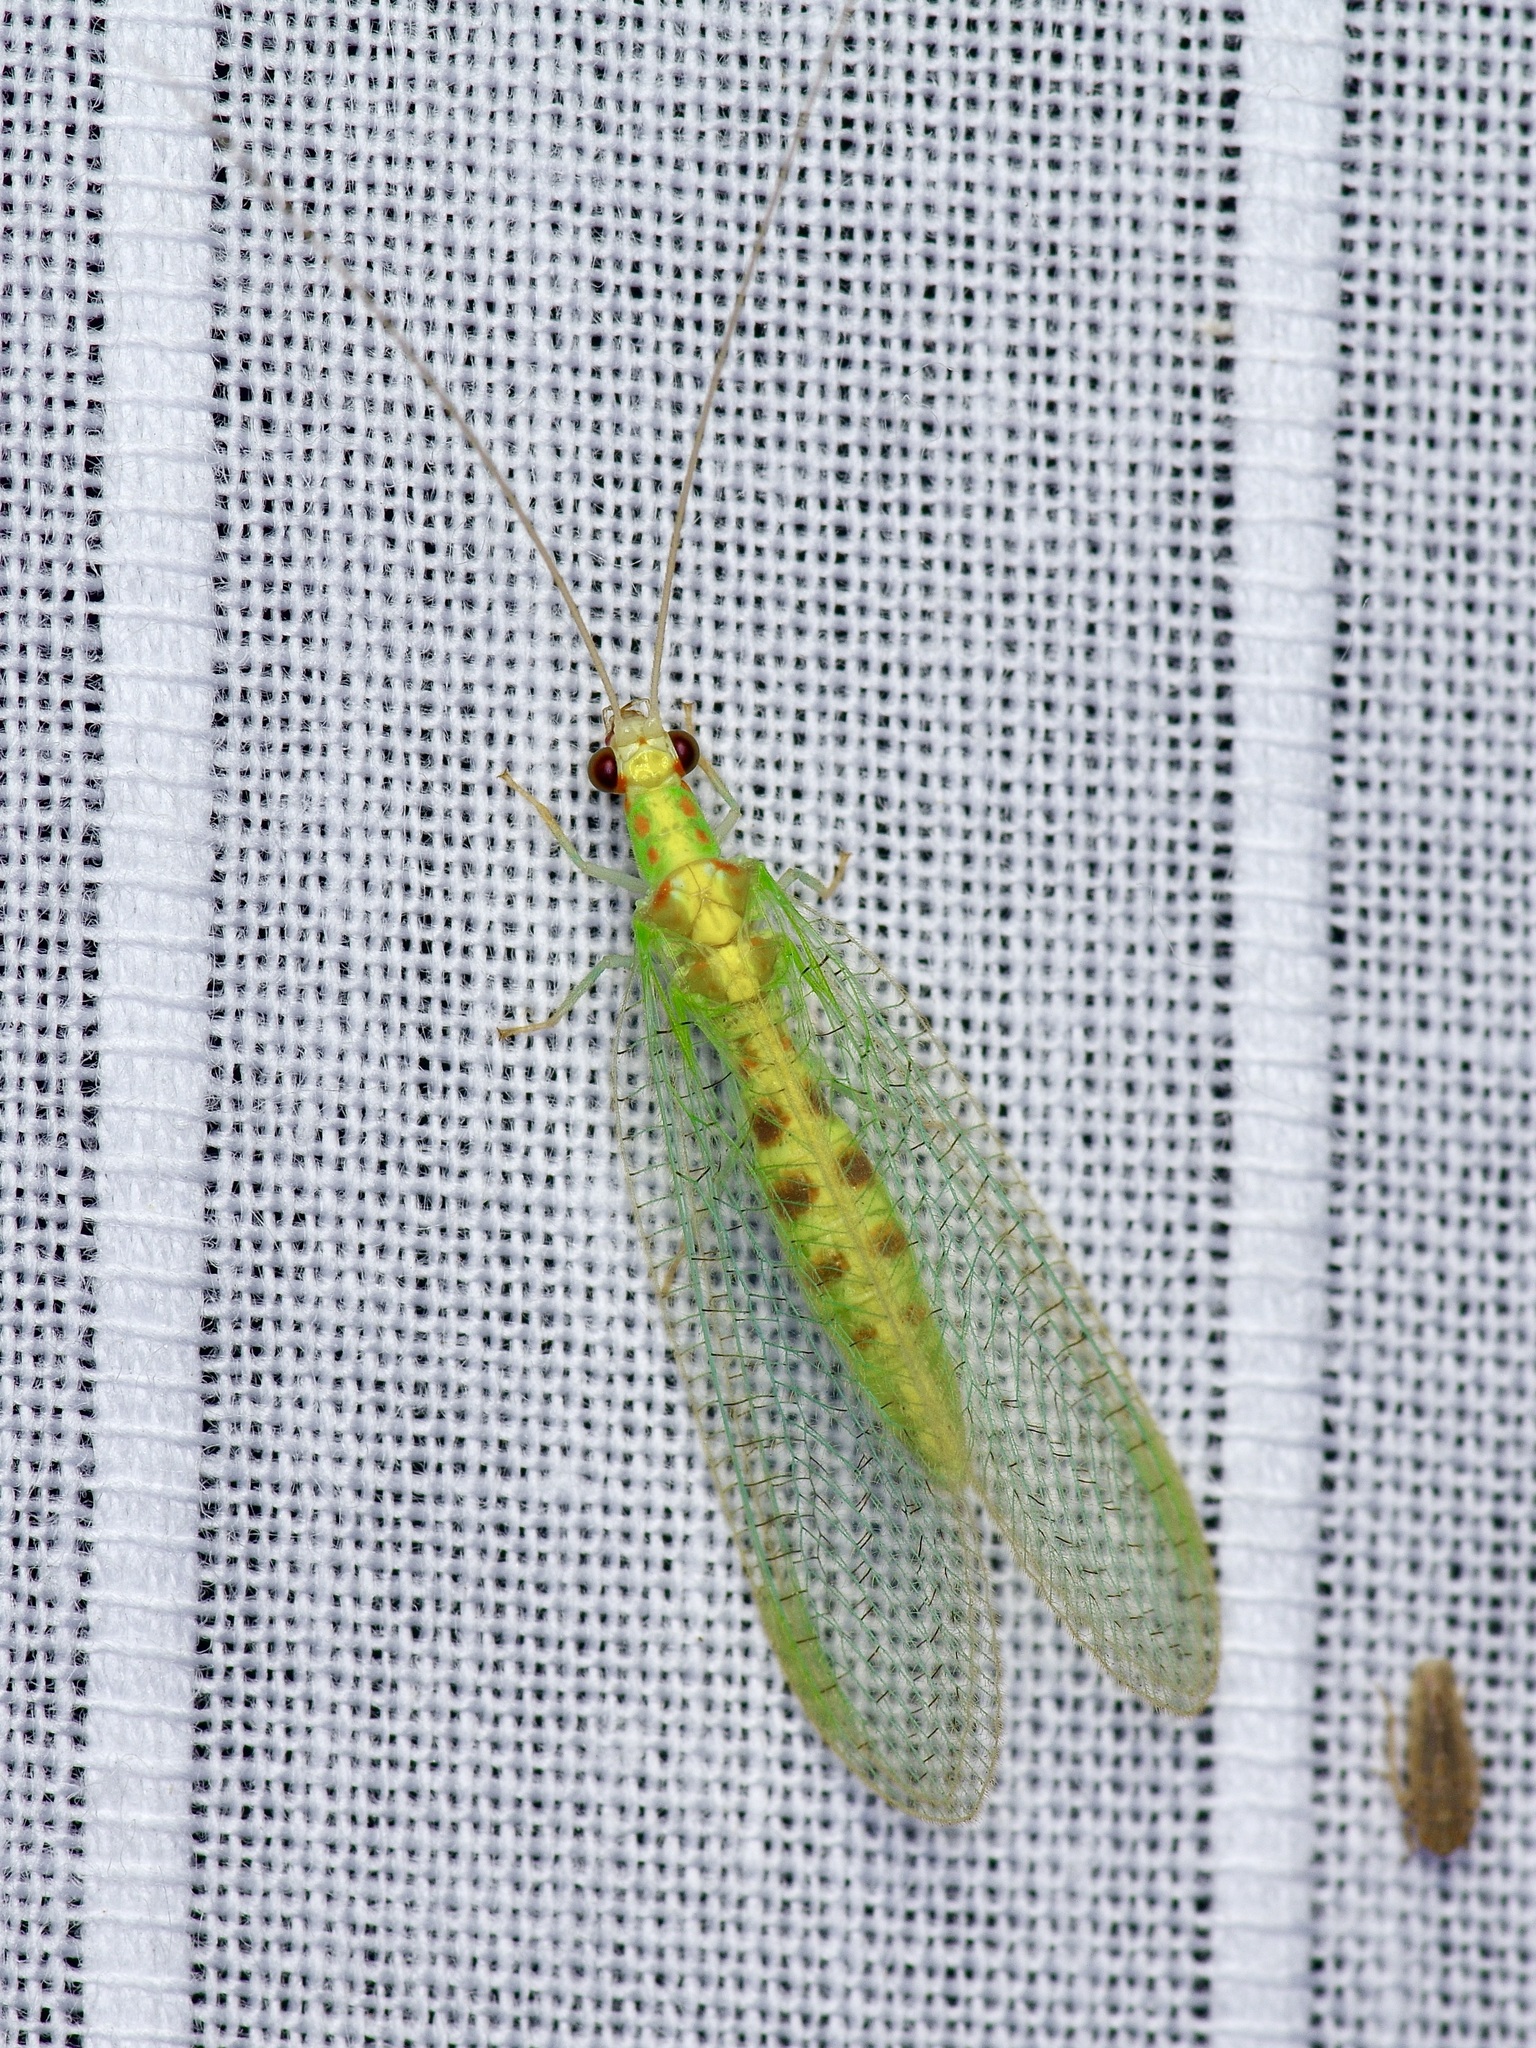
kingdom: Animalia
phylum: Arthropoda
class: Insecta
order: Neuroptera
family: Chrysopidae
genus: Chrysopa
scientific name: Chrysopa quadripunctata
